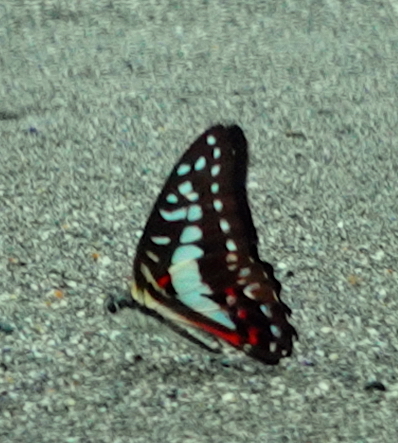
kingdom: Animalia
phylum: Arthropoda
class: Insecta
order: Lepidoptera
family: Papilionidae
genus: Graphium
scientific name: Graphium eurypylus
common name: Great jay
